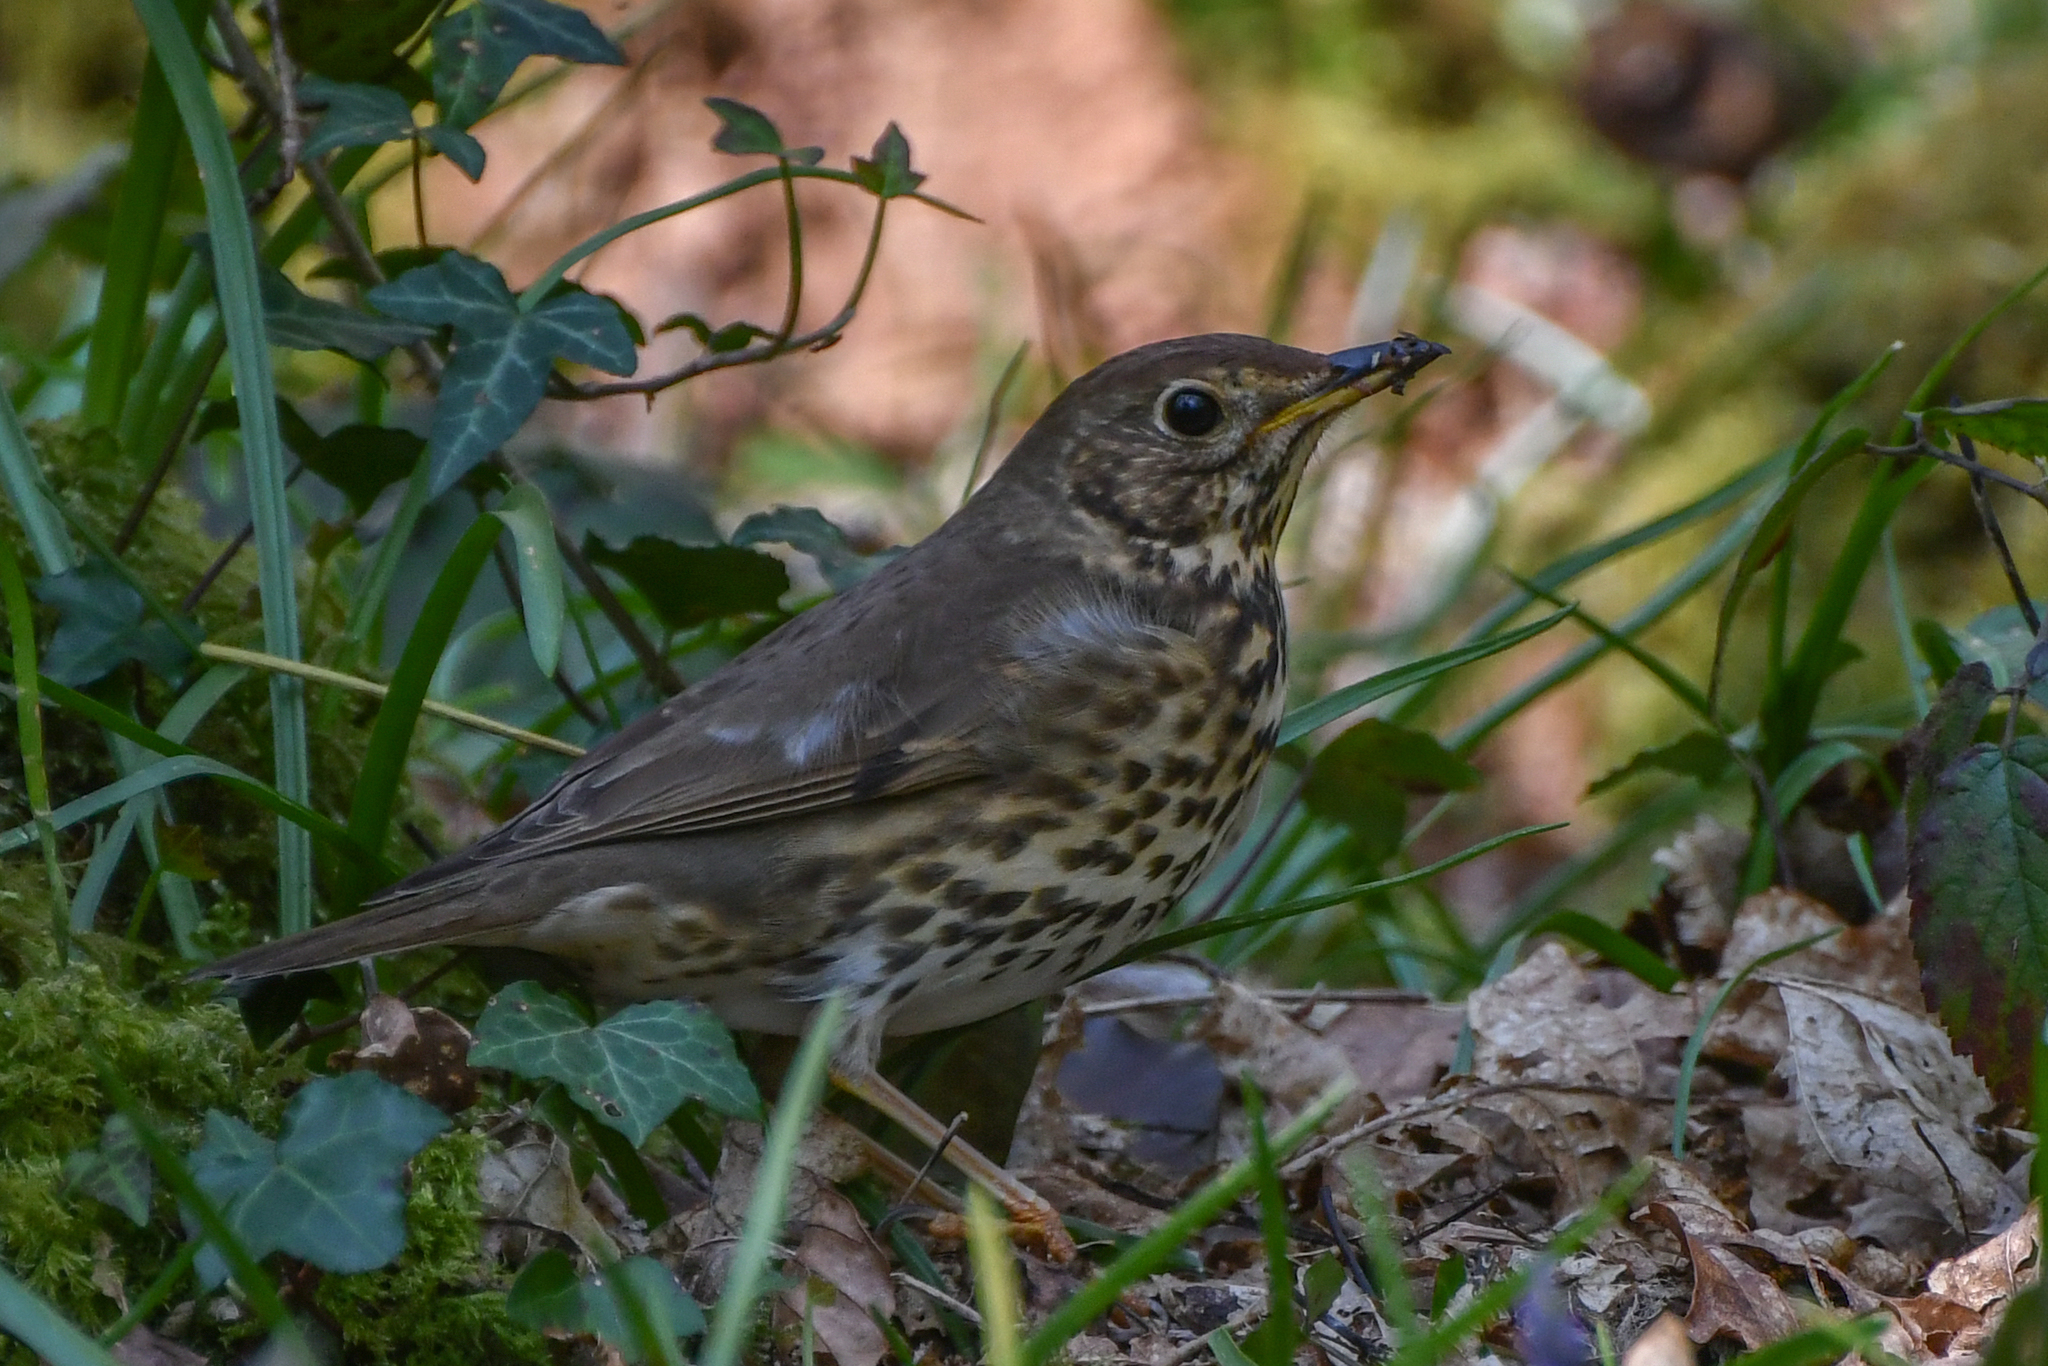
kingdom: Animalia
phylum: Chordata
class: Aves
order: Passeriformes
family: Turdidae
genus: Turdus
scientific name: Turdus philomelos
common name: Song thrush
